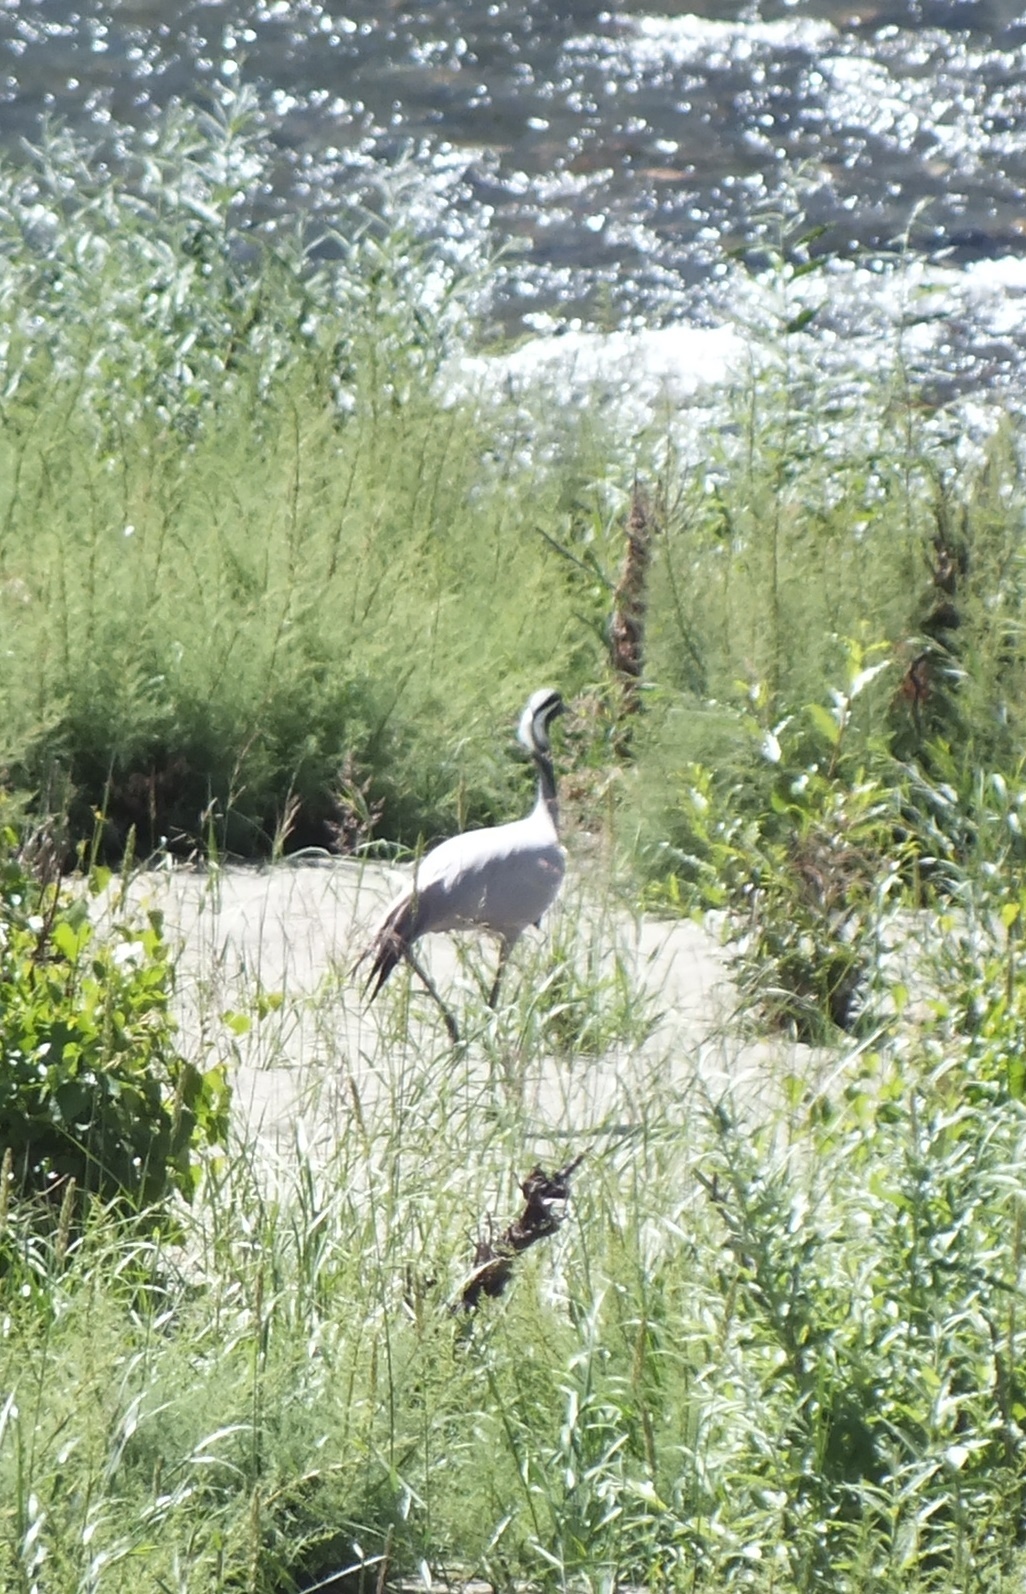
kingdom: Animalia
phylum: Chordata
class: Aves
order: Gruiformes
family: Gruidae
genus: Anthropoides
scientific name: Anthropoides virgo
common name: Demoiselle crane
